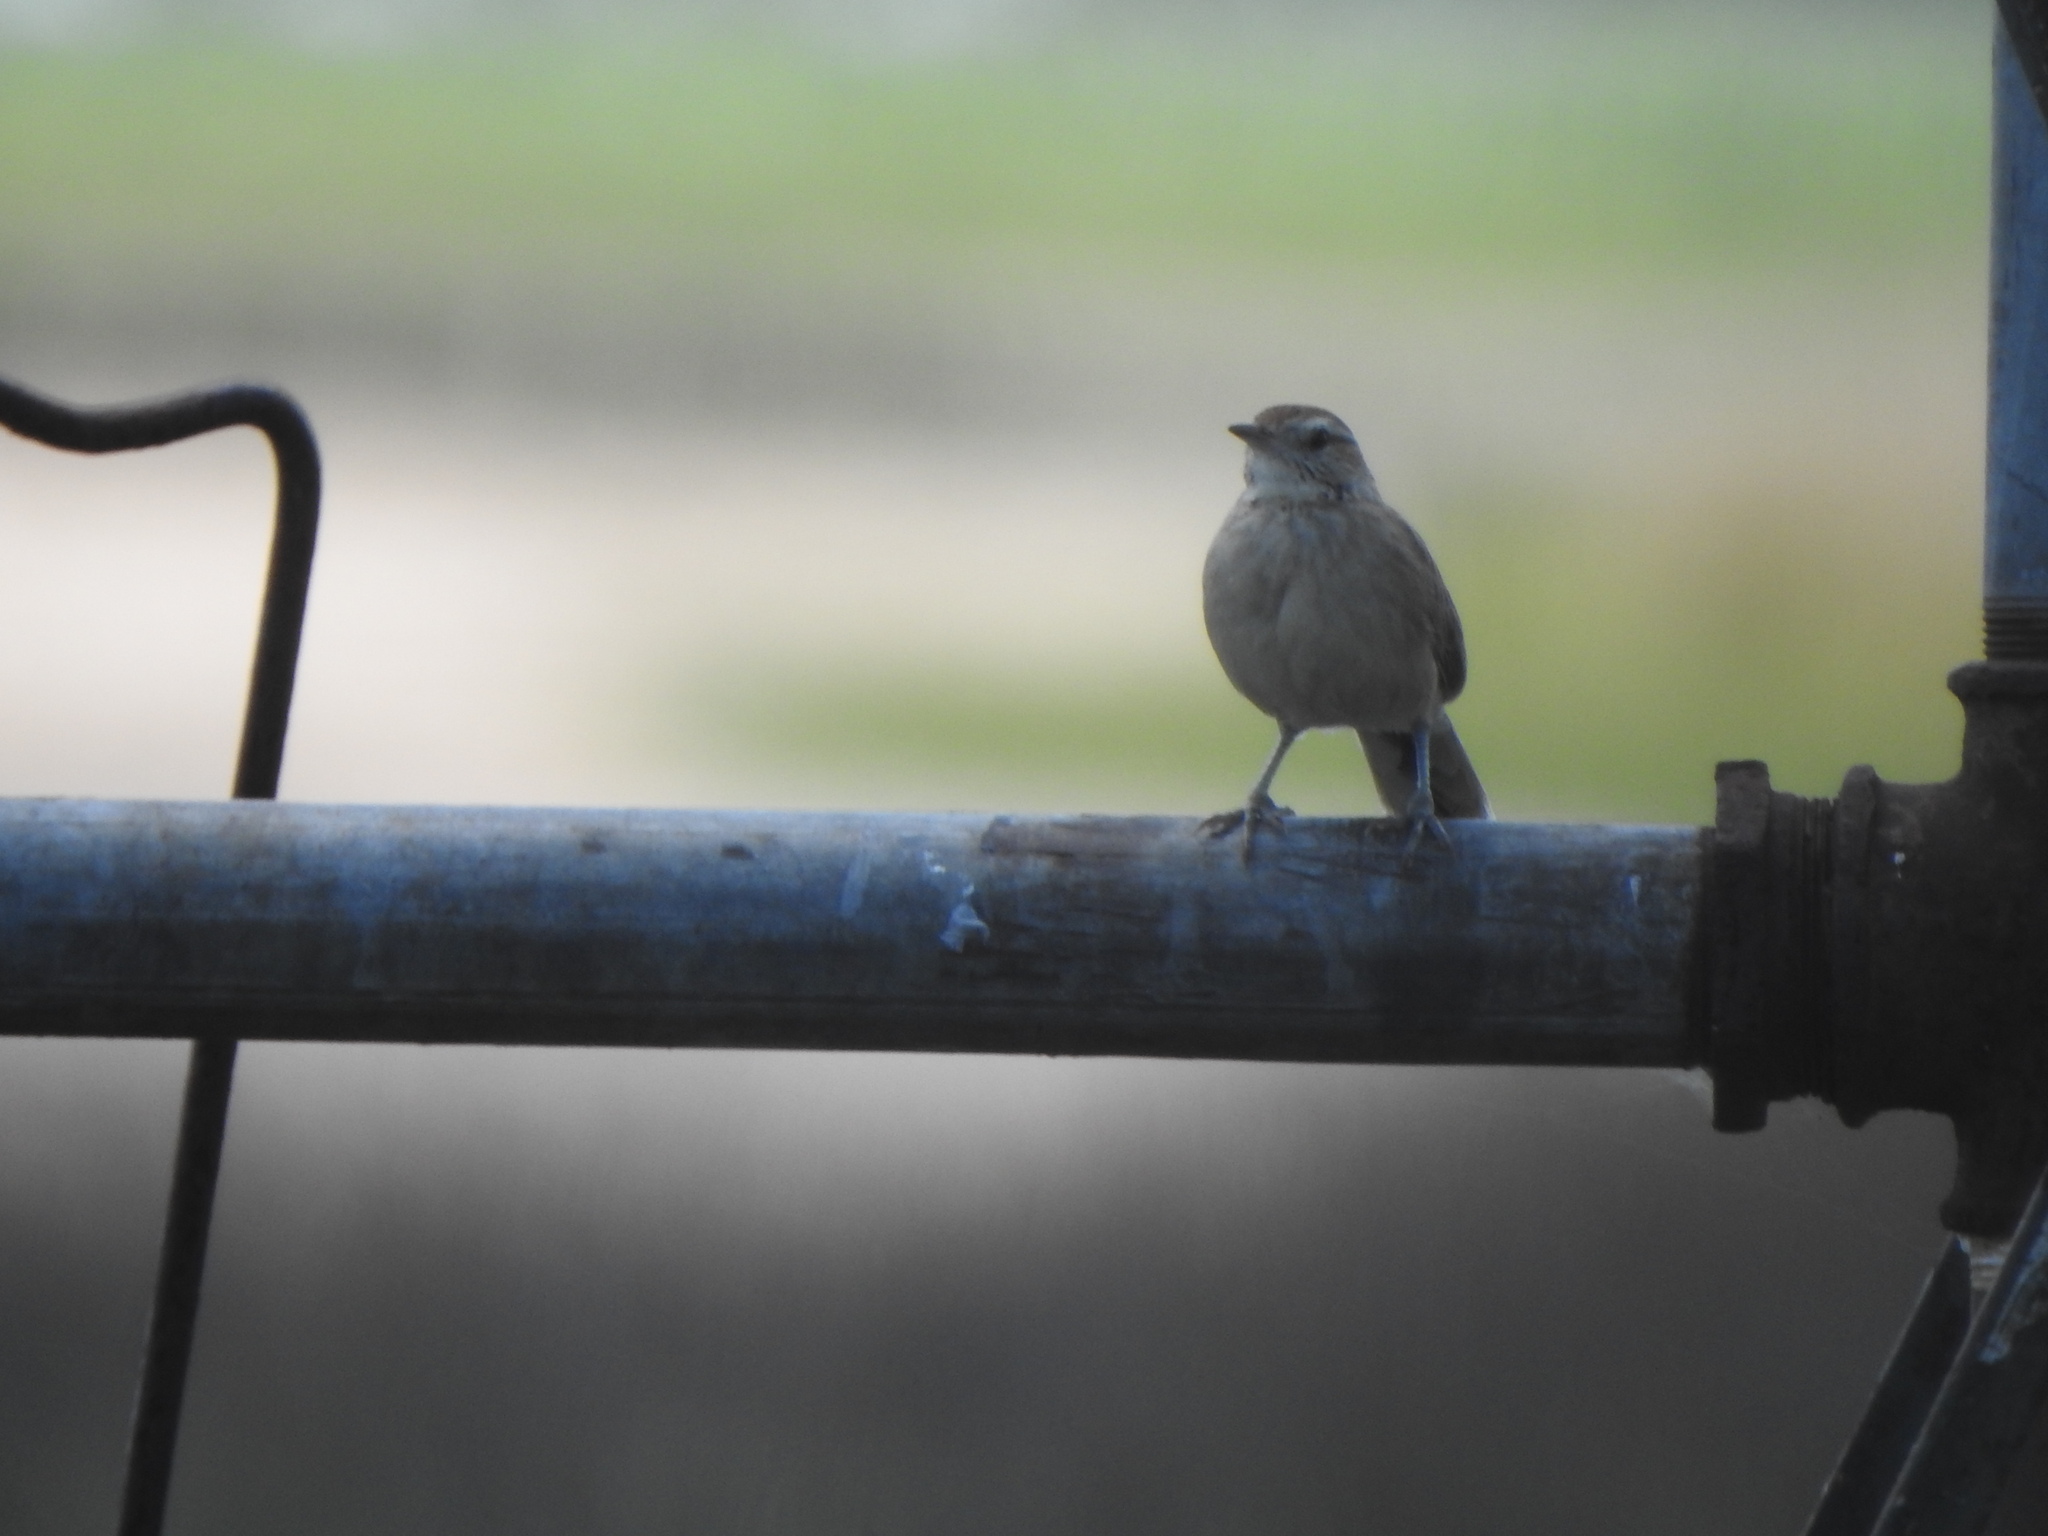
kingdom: Animalia
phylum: Chordata
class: Aves
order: Passeriformes
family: Furnariidae
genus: Anumbius
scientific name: Anumbius annumbi
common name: Firewood-gatherer
